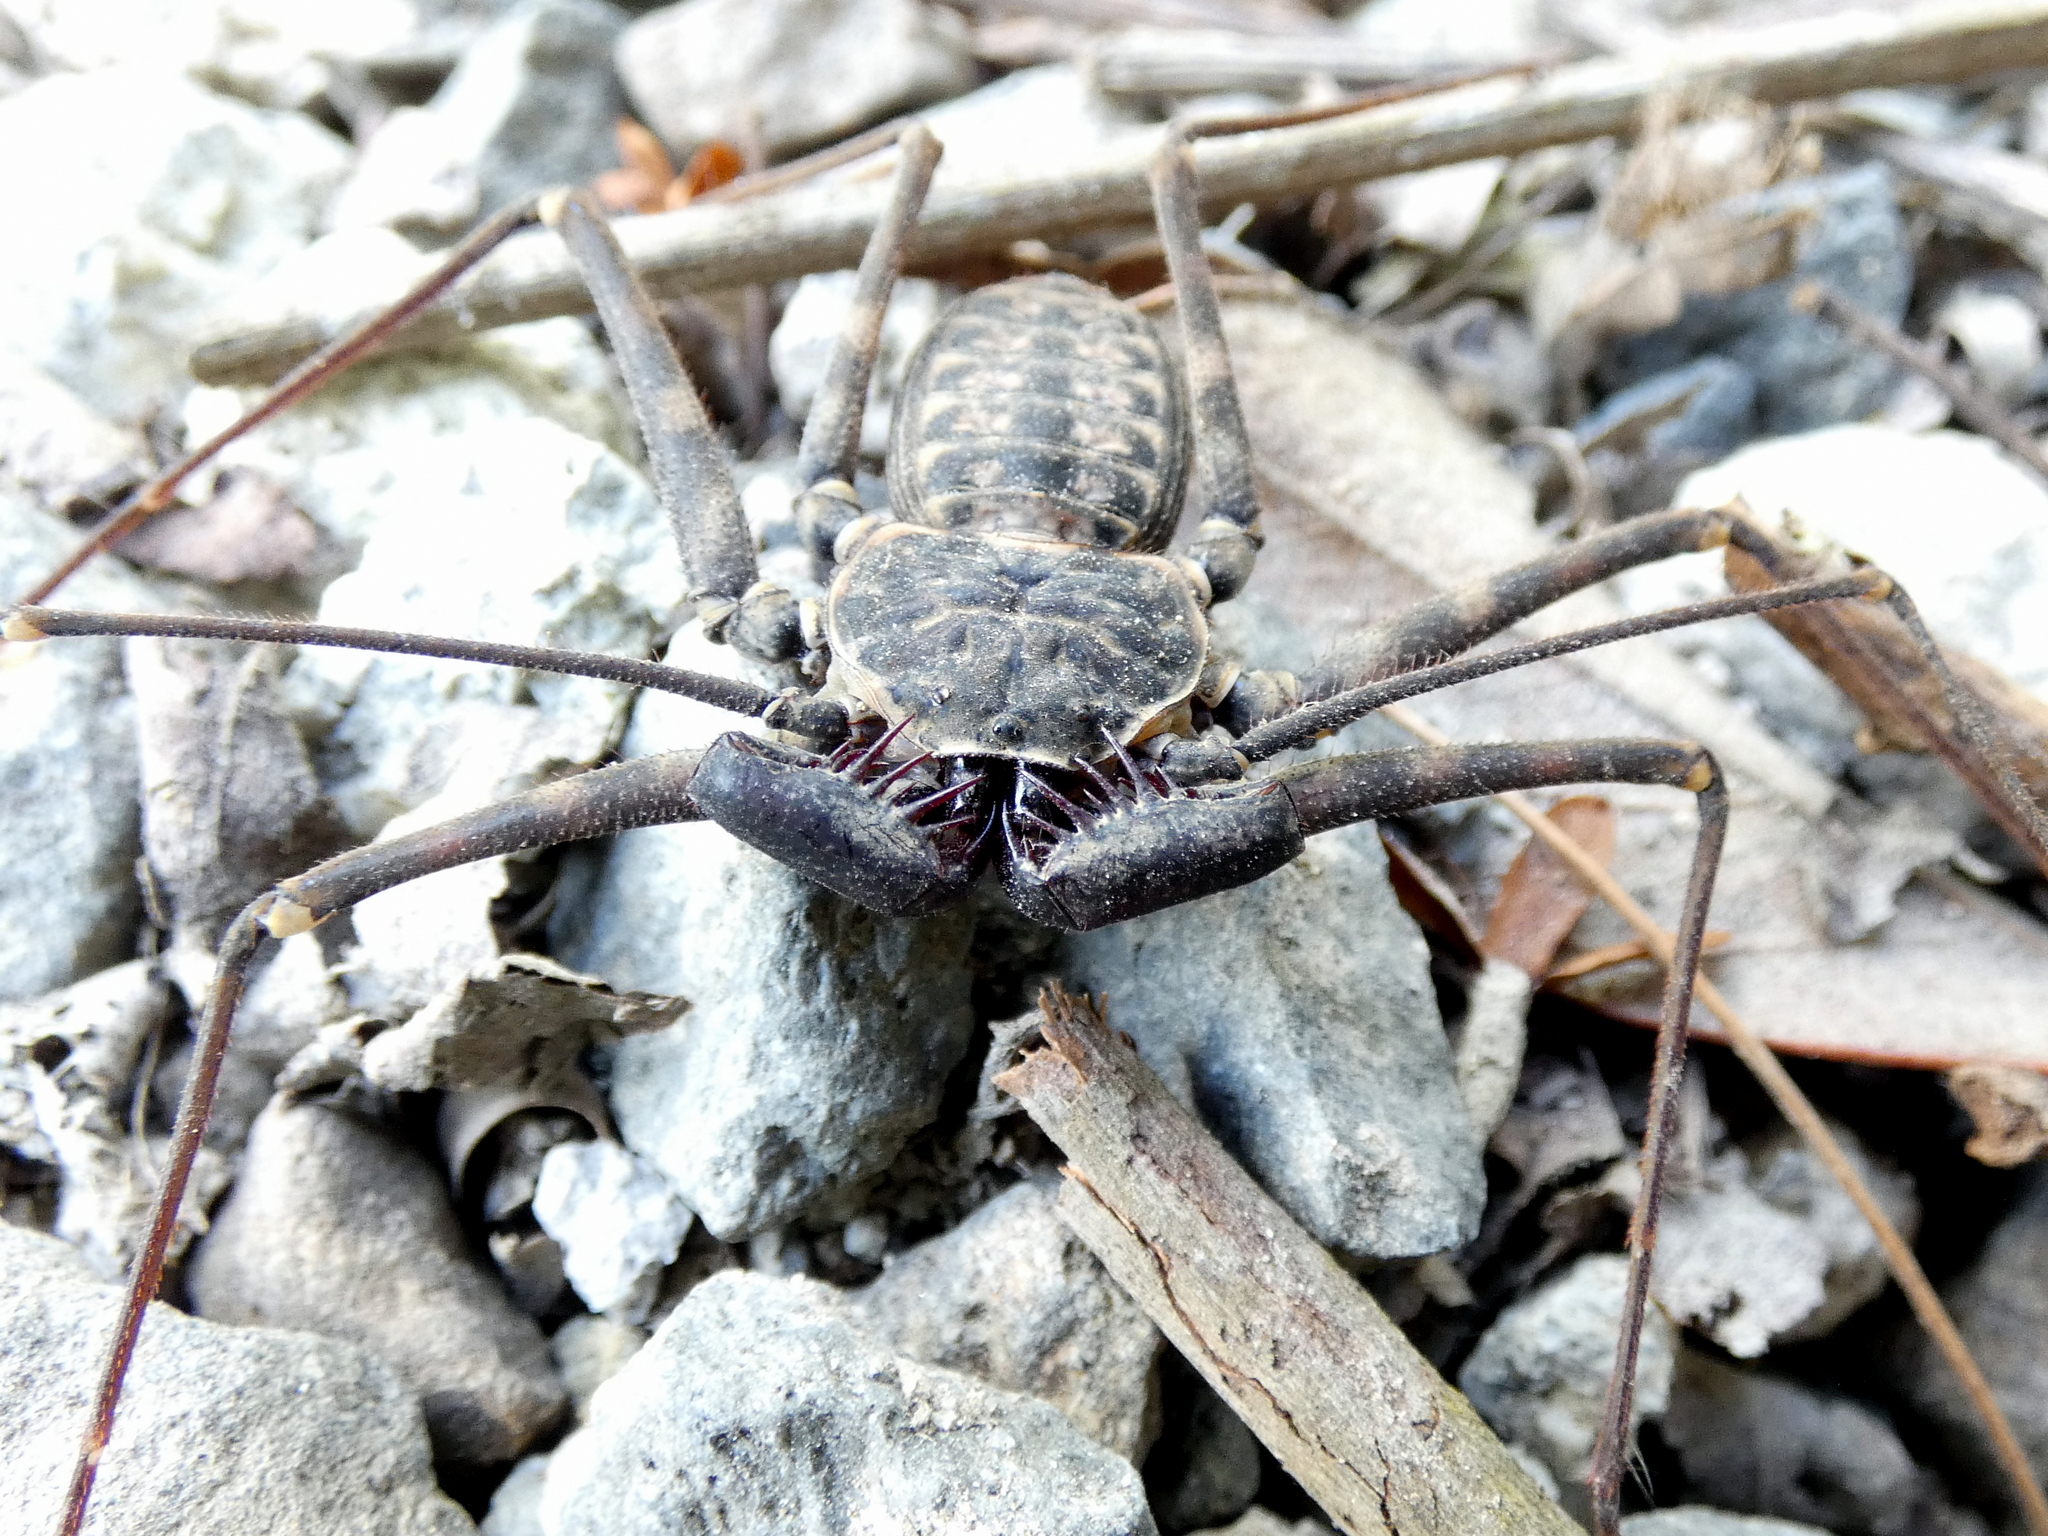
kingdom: Animalia
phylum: Arthropoda
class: Arachnida
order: Amblypygi
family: Phrynidae
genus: Phrynus
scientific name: Phrynus barbadensis
